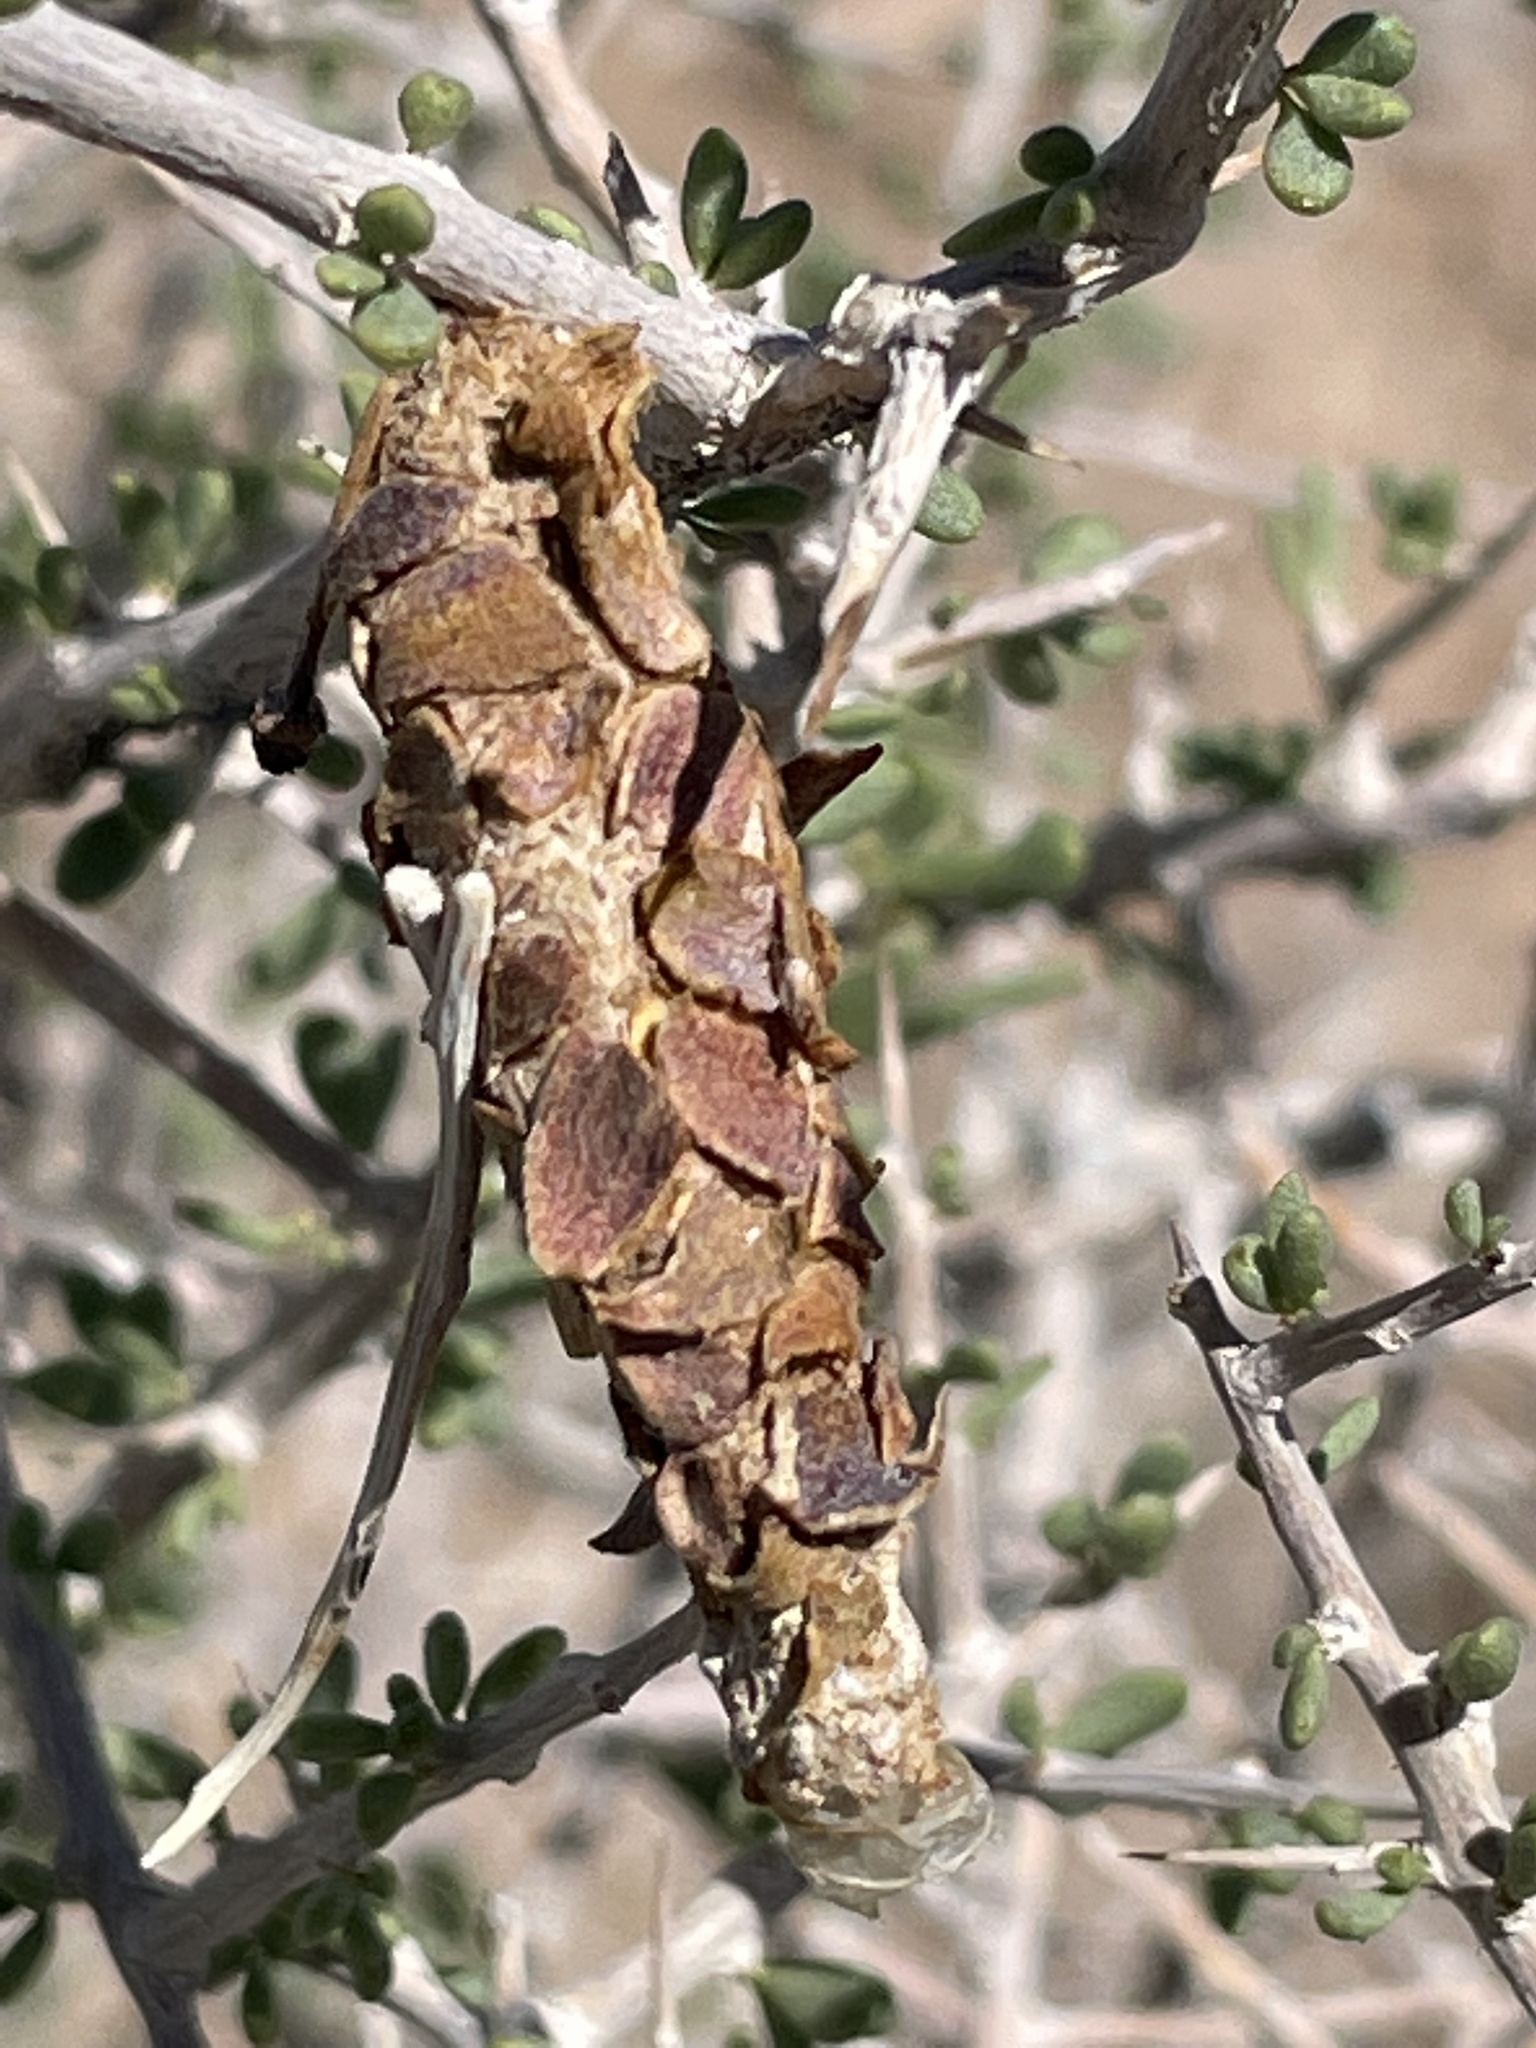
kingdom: Animalia
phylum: Arthropoda
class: Insecta
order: Lepidoptera
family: Psychidae
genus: Thyridopteryx
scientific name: Thyridopteryx meadii
